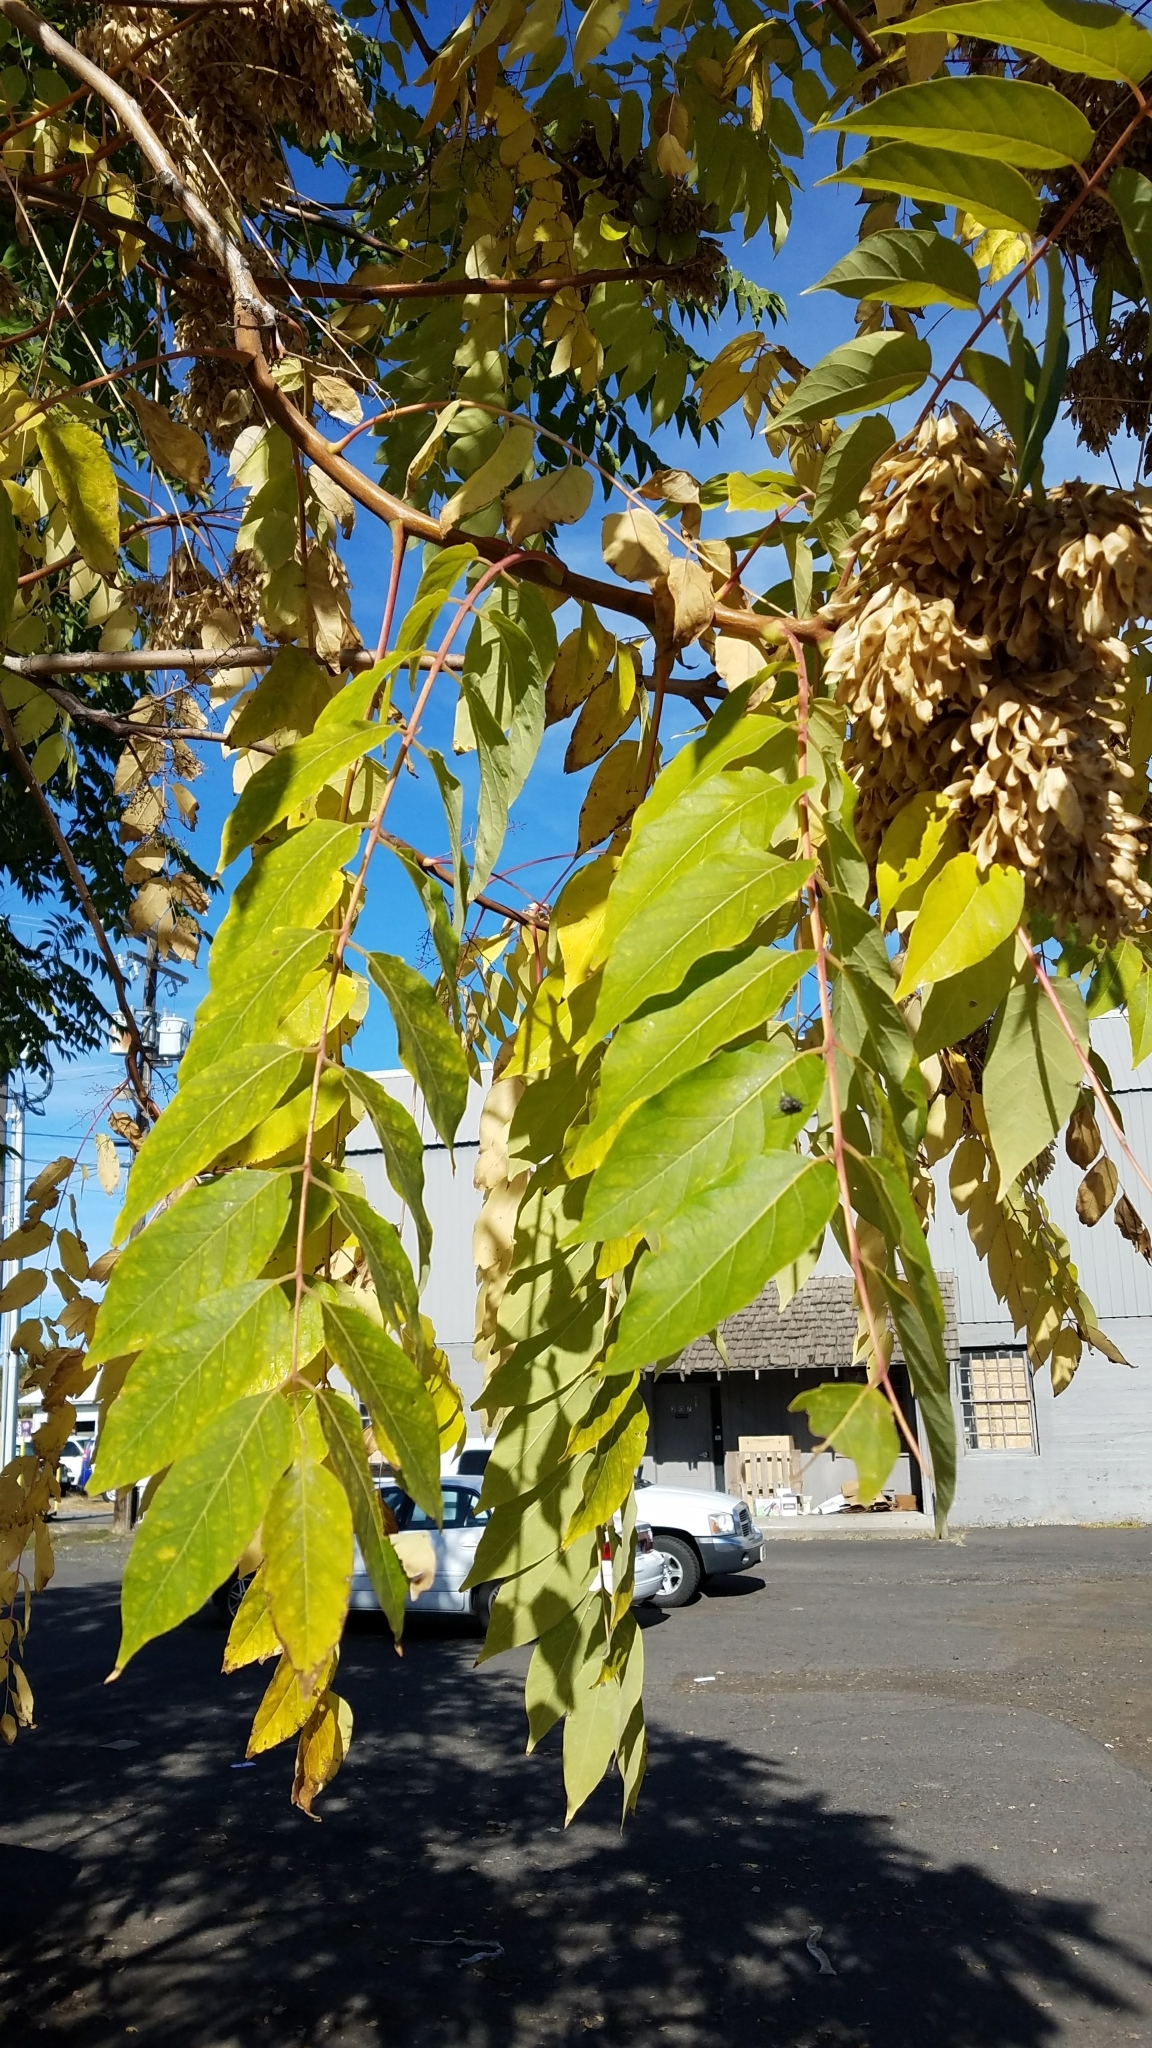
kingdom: Plantae
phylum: Tracheophyta
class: Magnoliopsida
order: Sapindales
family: Simaroubaceae
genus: Ailanthus
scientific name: Ailanthus altissima
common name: Tree-of-heaven
